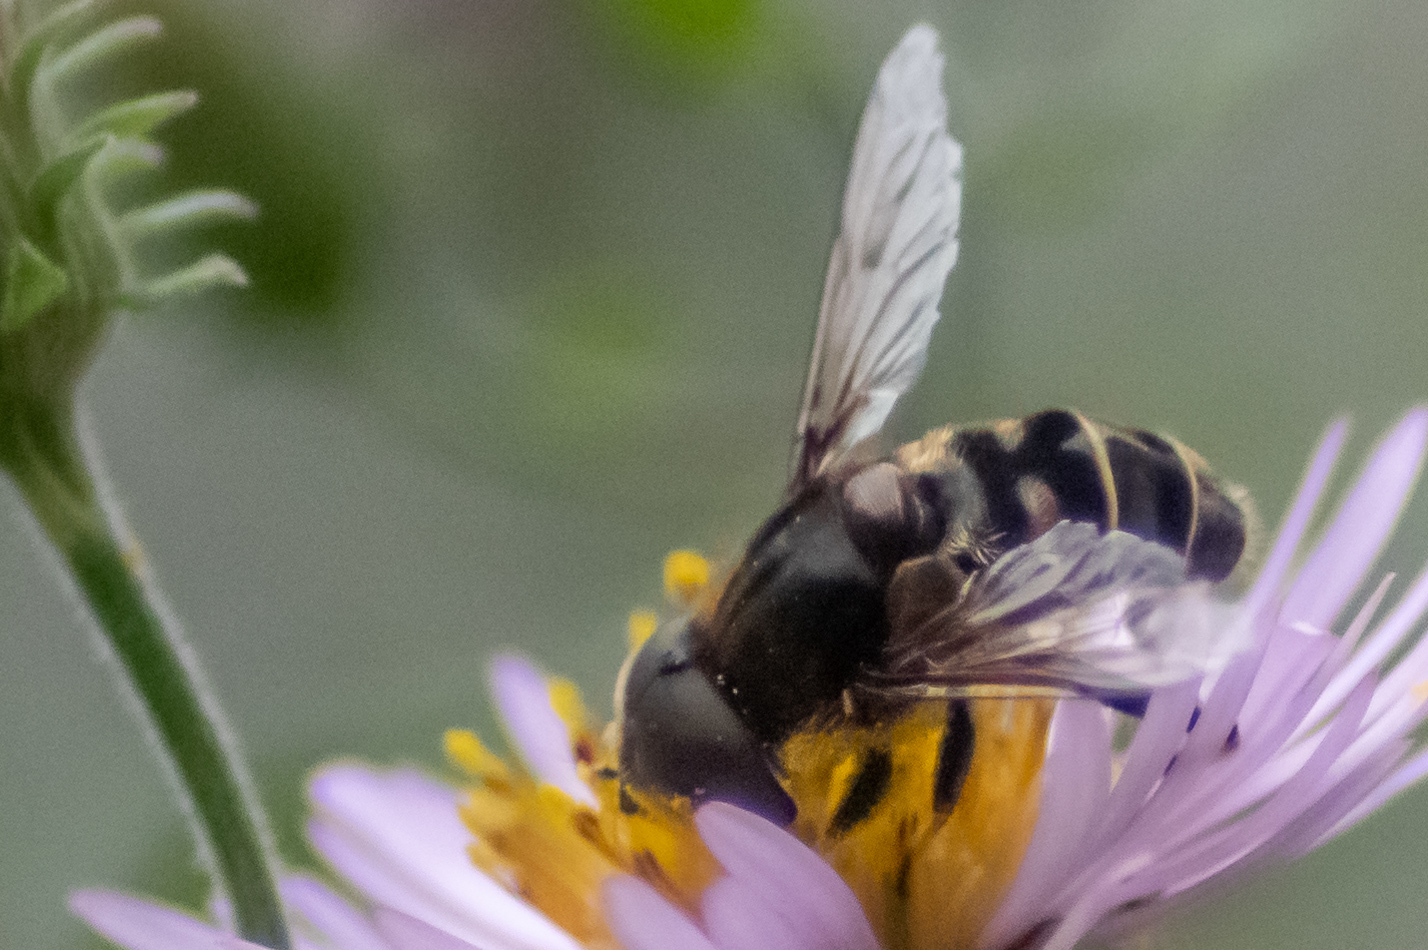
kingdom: Animalia
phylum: Arthropoda
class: Insecta
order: Diptera
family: Syrphidae
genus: Eristalis
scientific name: Eristalis dimidiata
